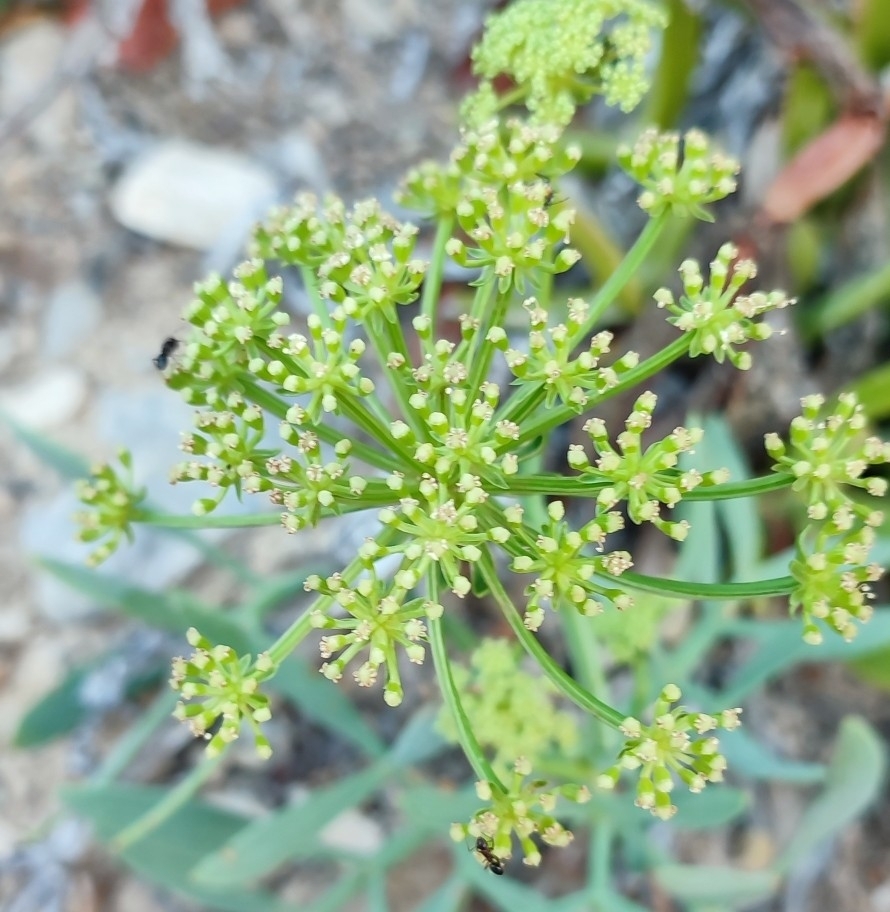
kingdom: Plantae
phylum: Tracheophyta
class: Magnoliopsida
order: Apiales
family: Apiaceae
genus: Crithmum
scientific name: Crithmum maritimum
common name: Rock samphire
